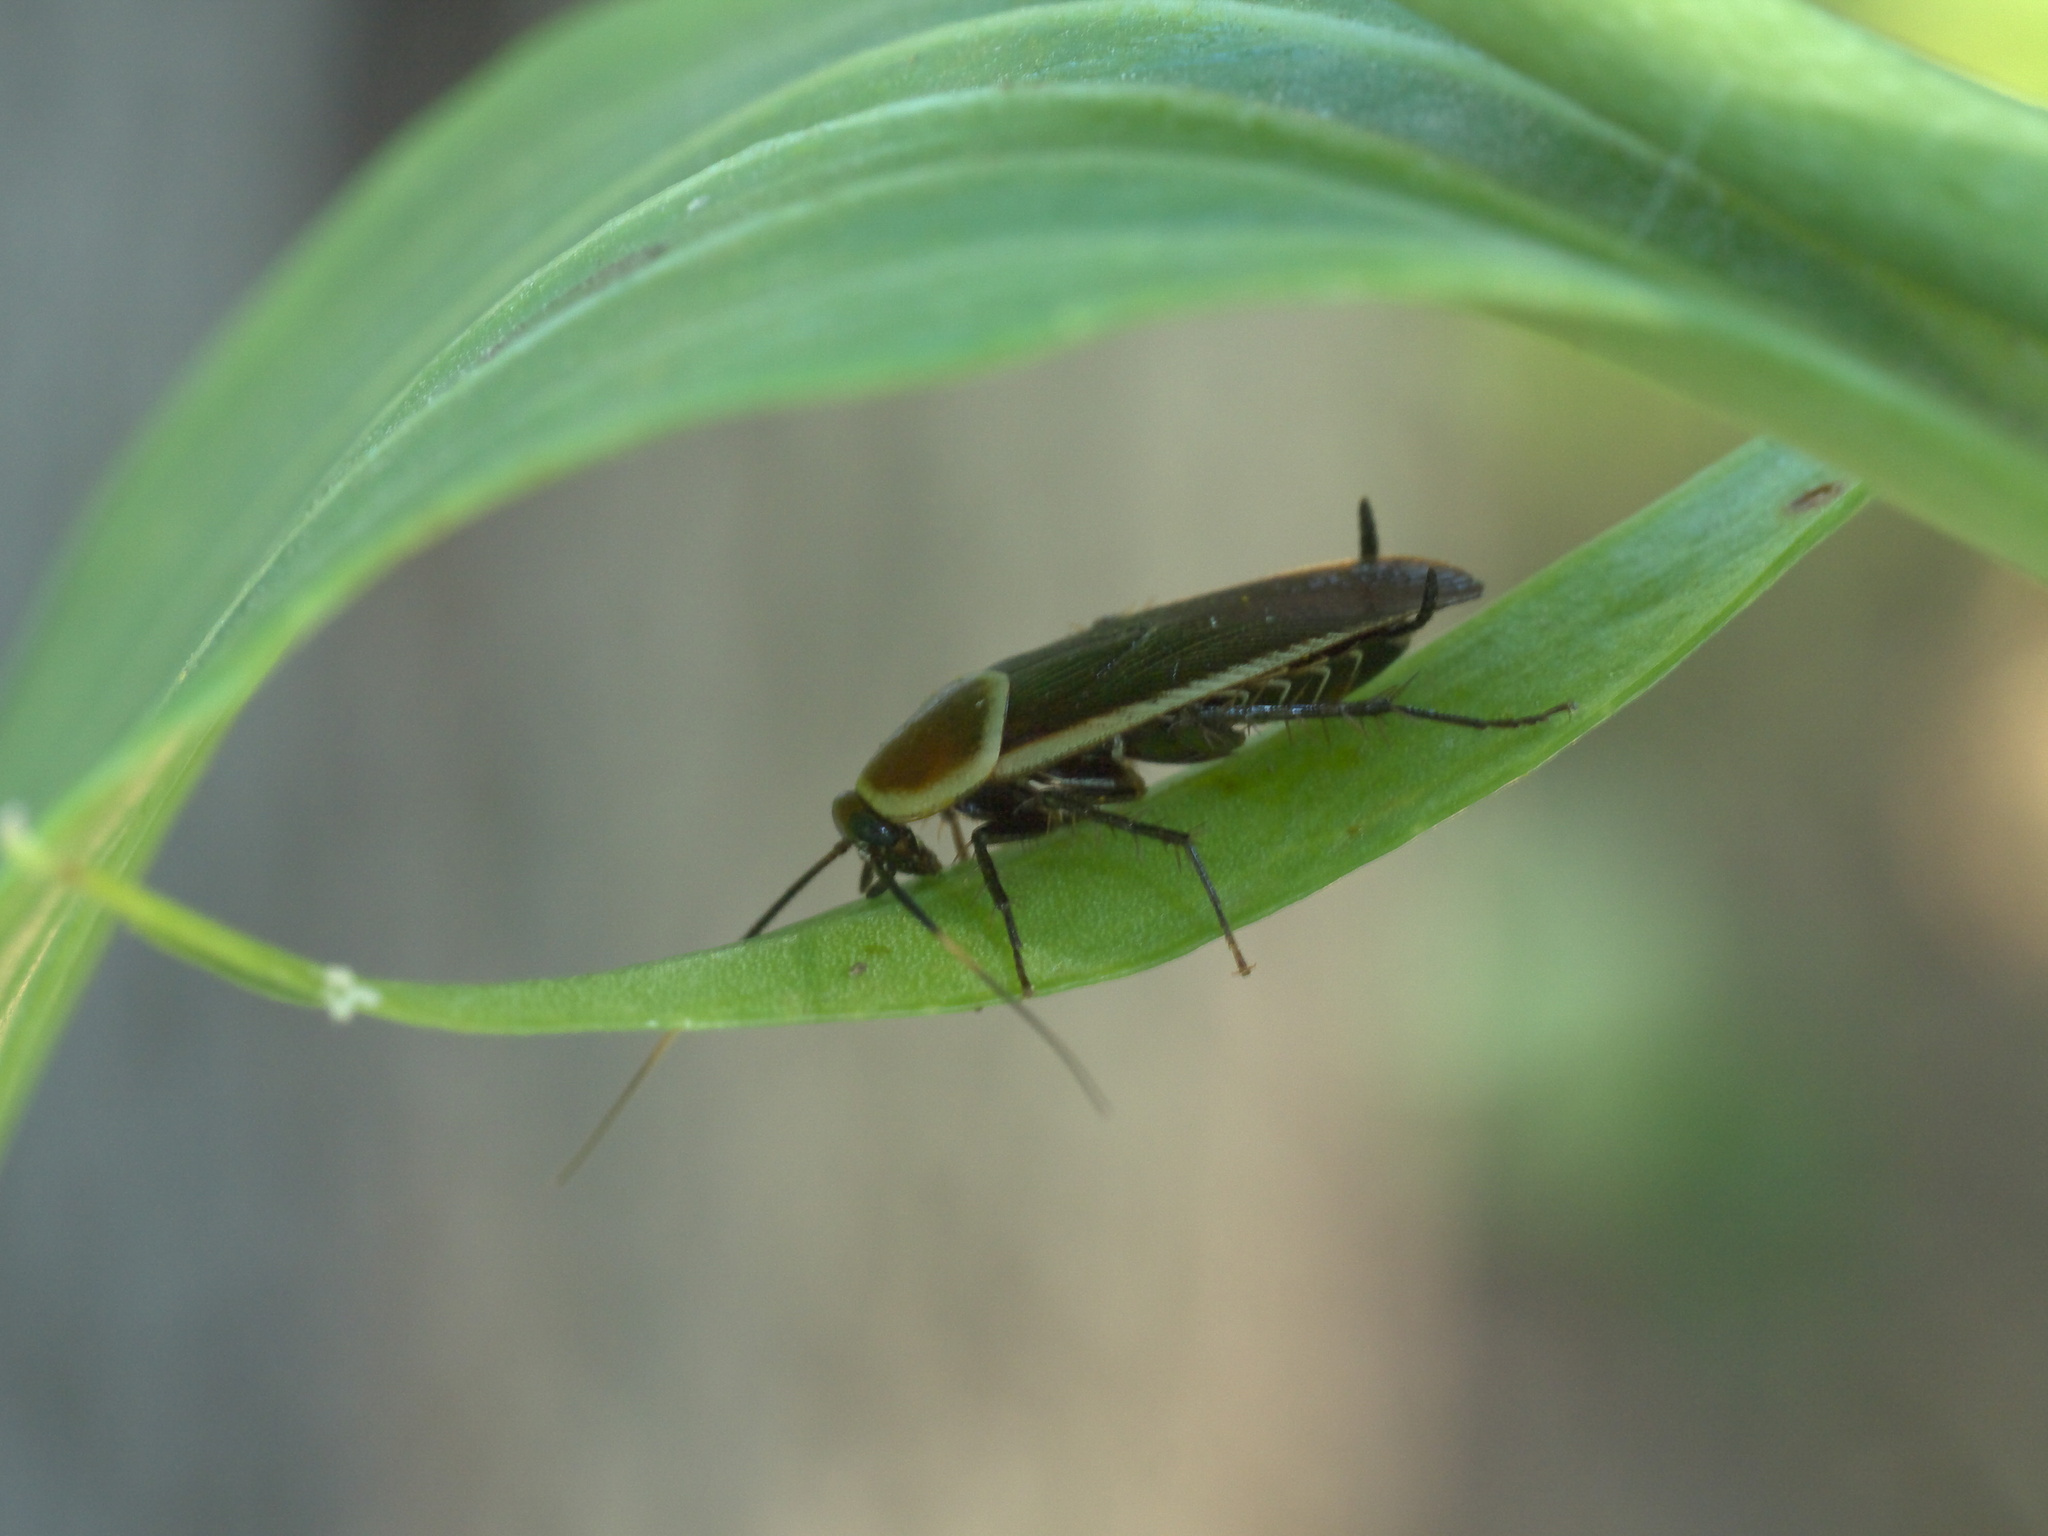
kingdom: Animalia
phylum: Arthropoda
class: Insecta
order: Blattodea
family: Ectobiidae
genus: Pseudomops
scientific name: Pseudomops septentrionalis
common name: Pale-bordered field cockroach
